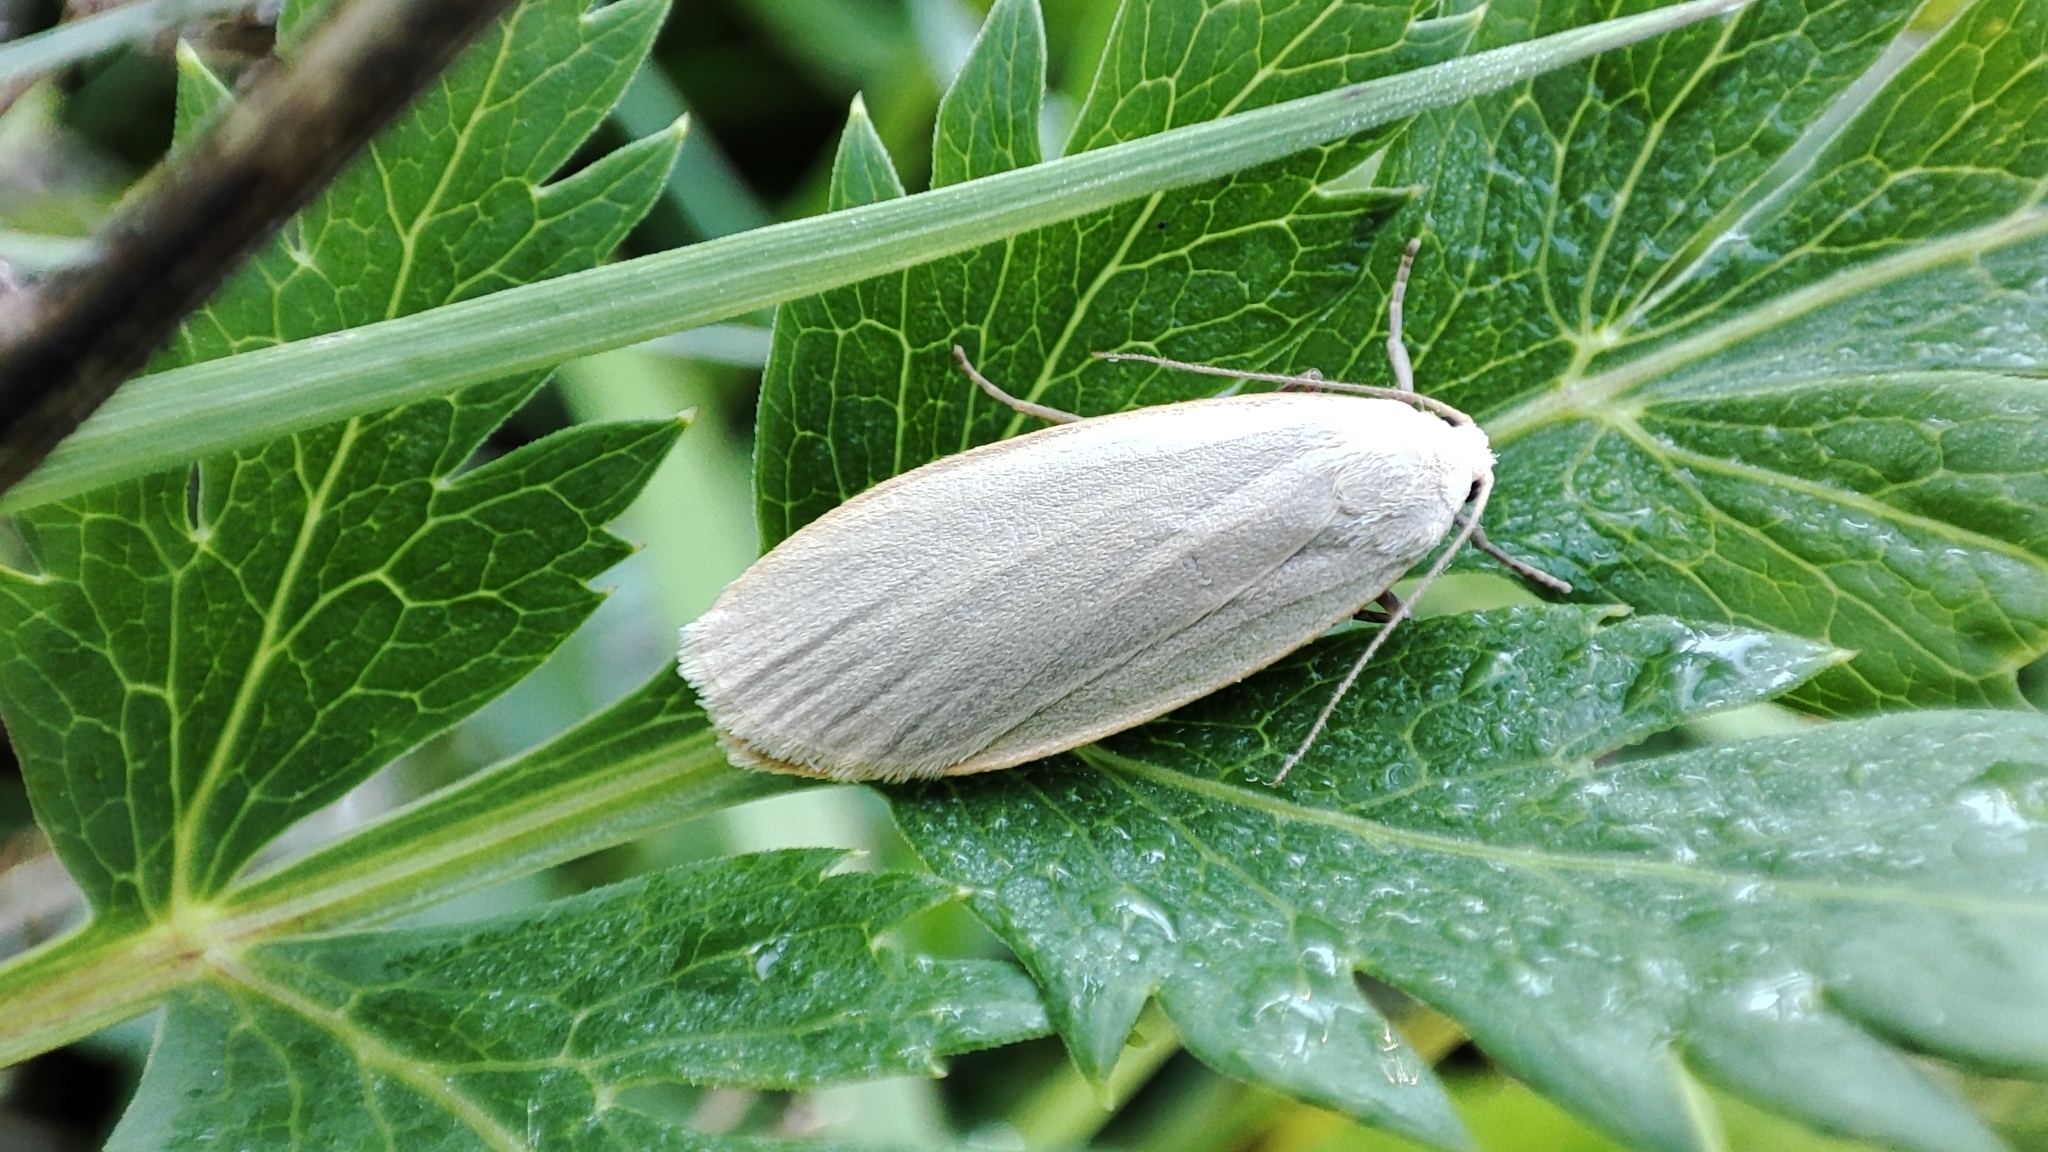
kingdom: Animalia
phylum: Arthropoda
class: Insecta
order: Lepidoptera
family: Erebidae
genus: Collita
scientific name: Collita griseola
